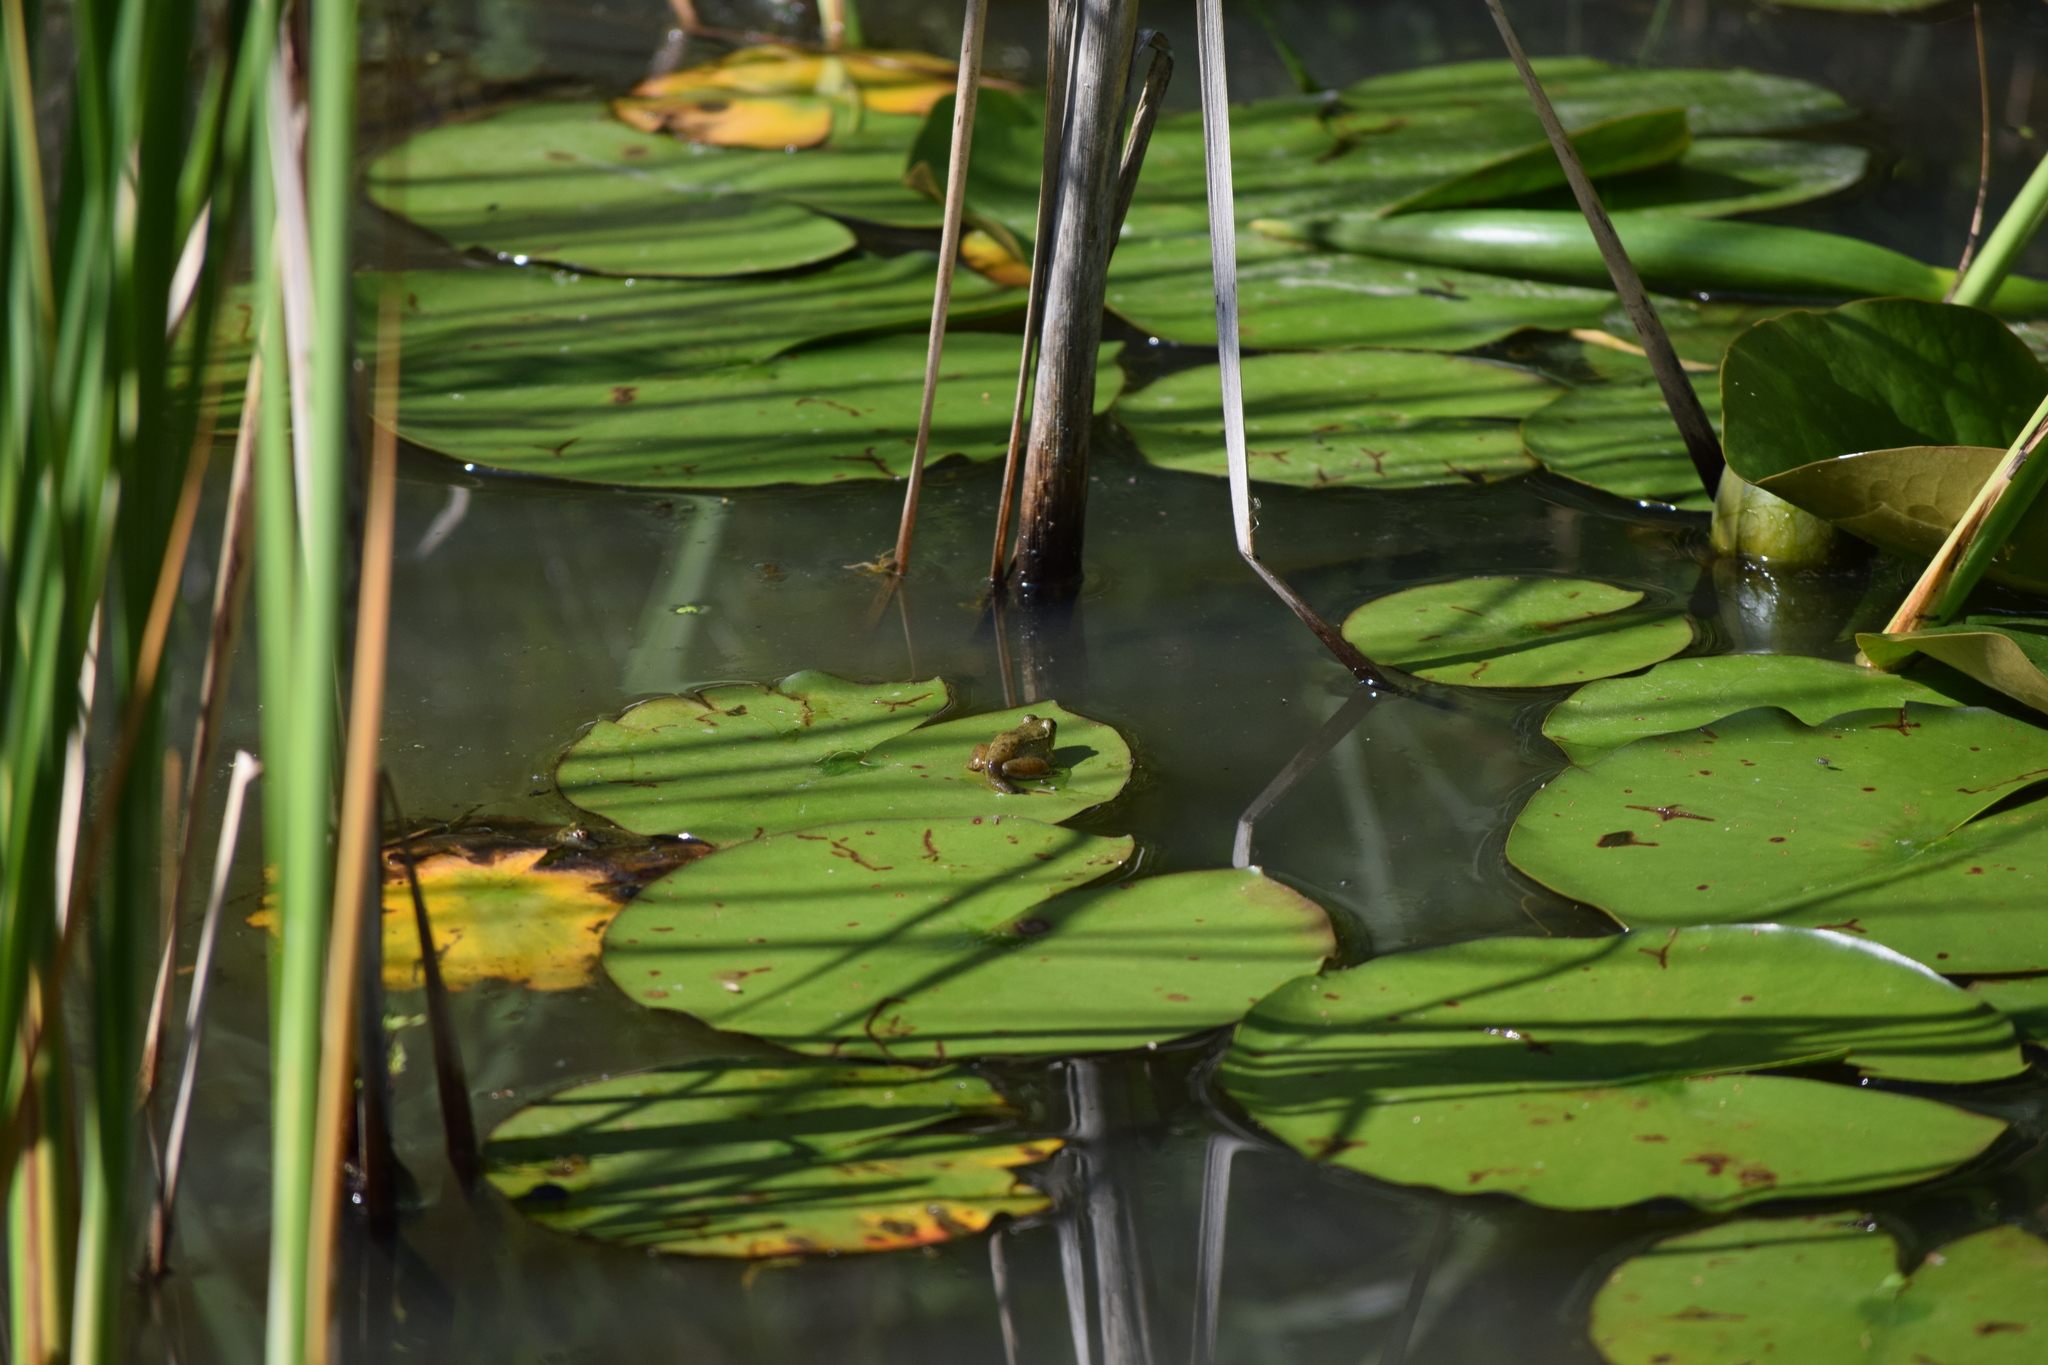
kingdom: Animalia
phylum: Chordata
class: Amphibia
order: Anura
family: Ranidae
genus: Lithobates
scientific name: Lithobates clamitans
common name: Green frog
